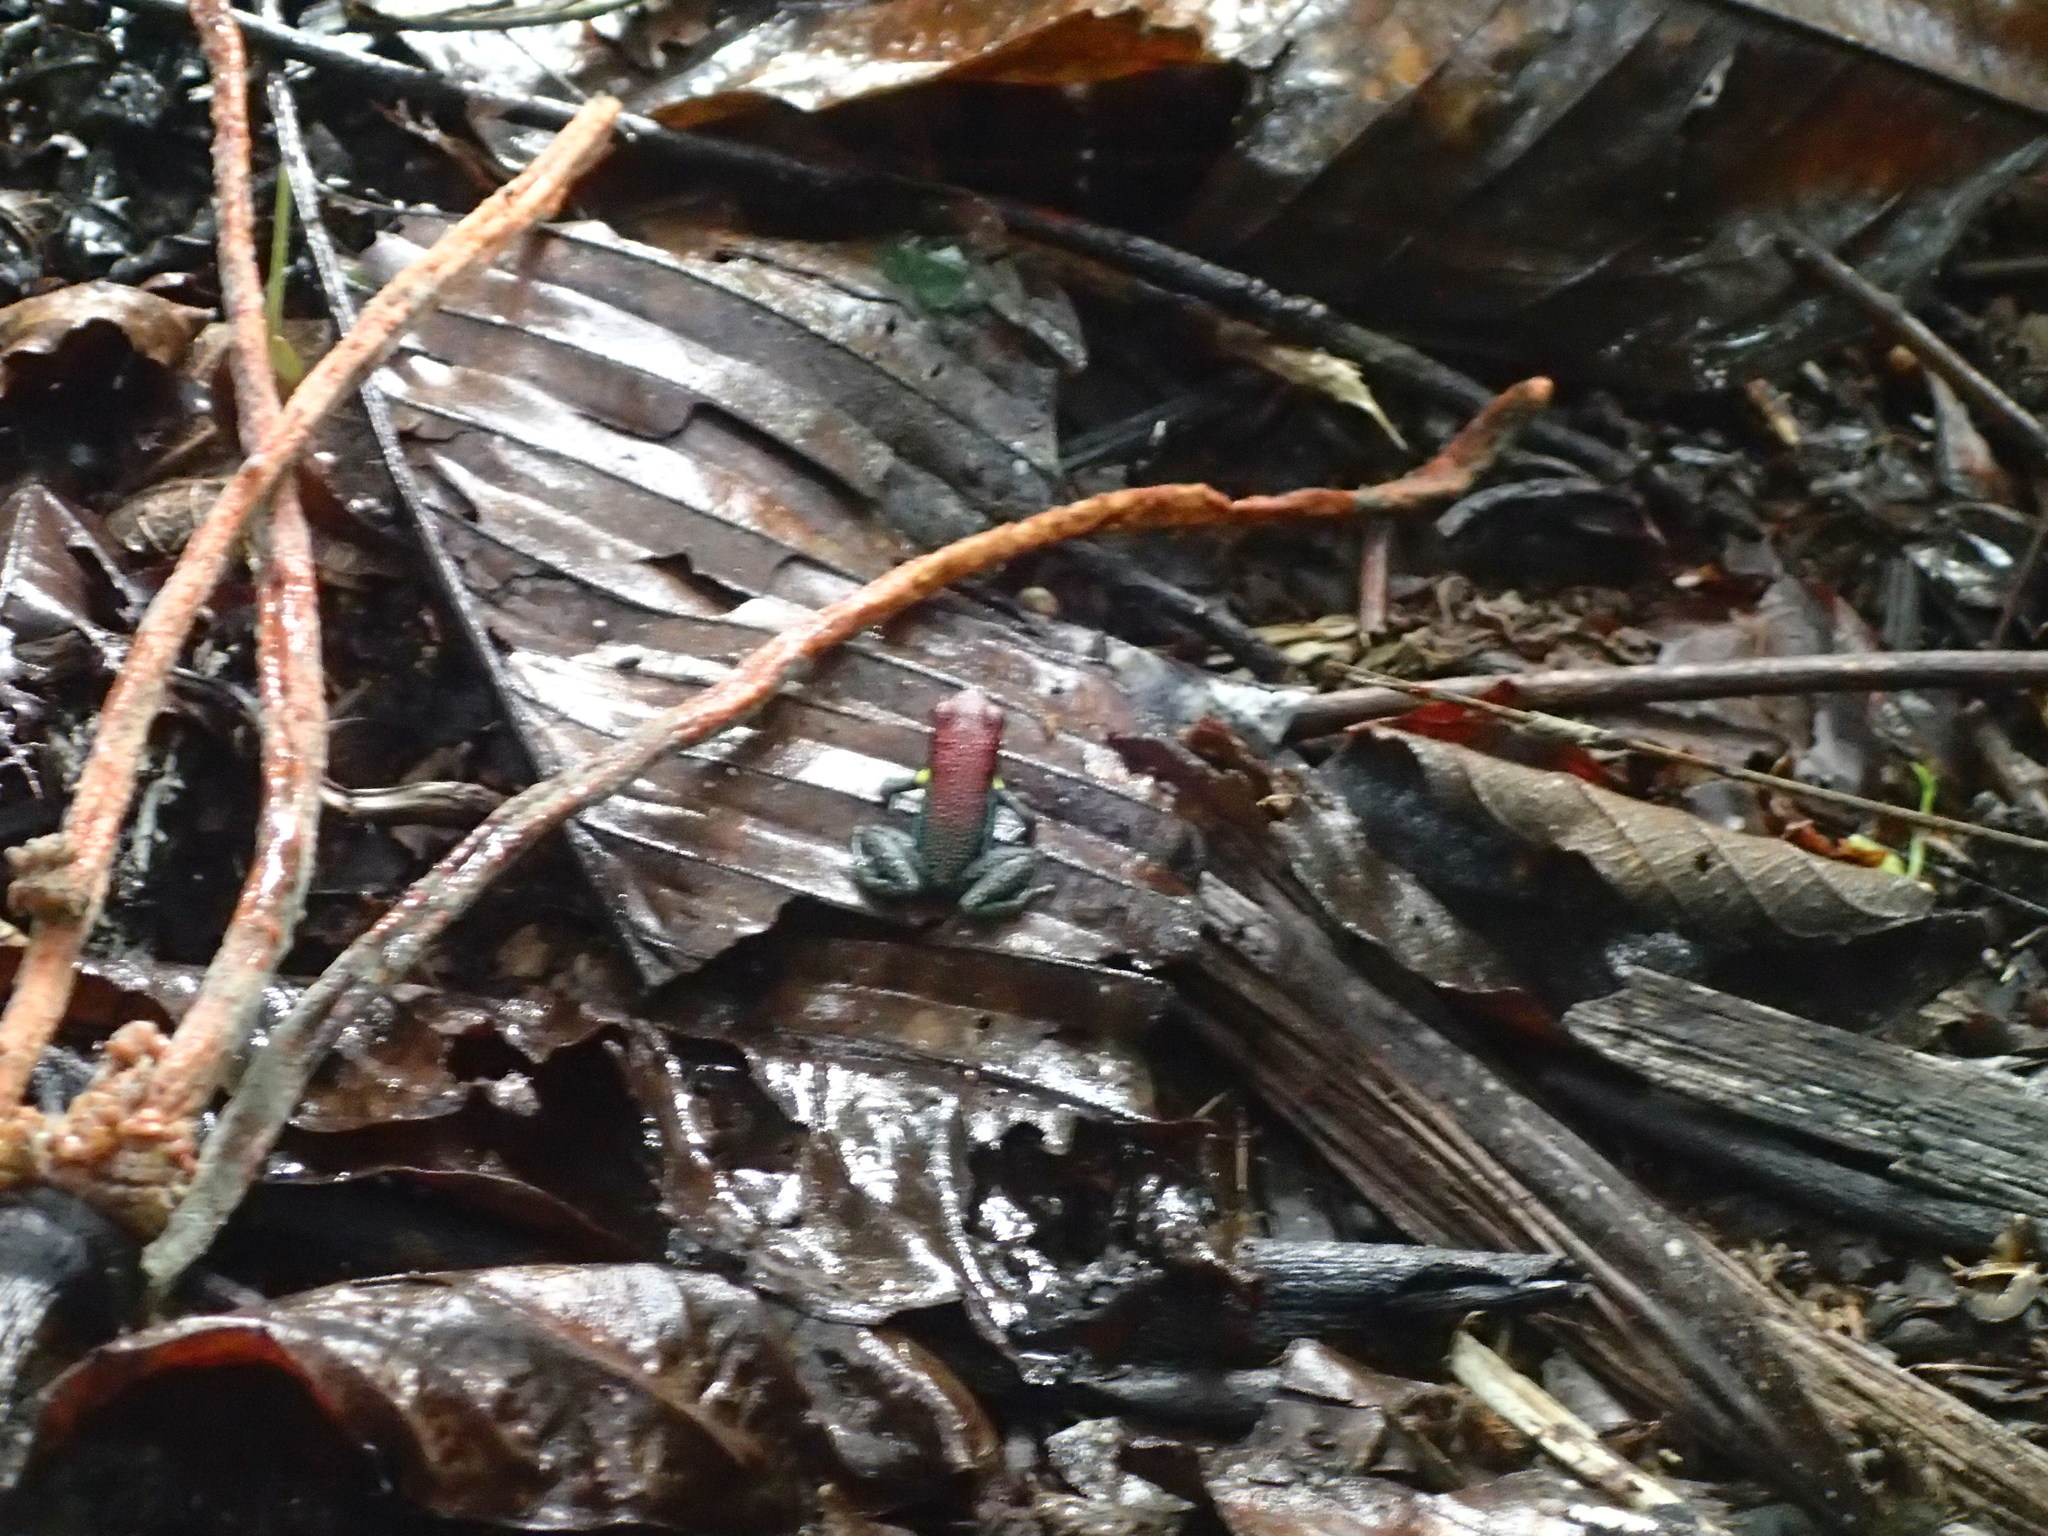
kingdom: Animalia
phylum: Chordata
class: Amphibia
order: Anura
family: Dendrobatidae
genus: Ameerega
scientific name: Ameerega bilinguis
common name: Ecuadorean poison frog
